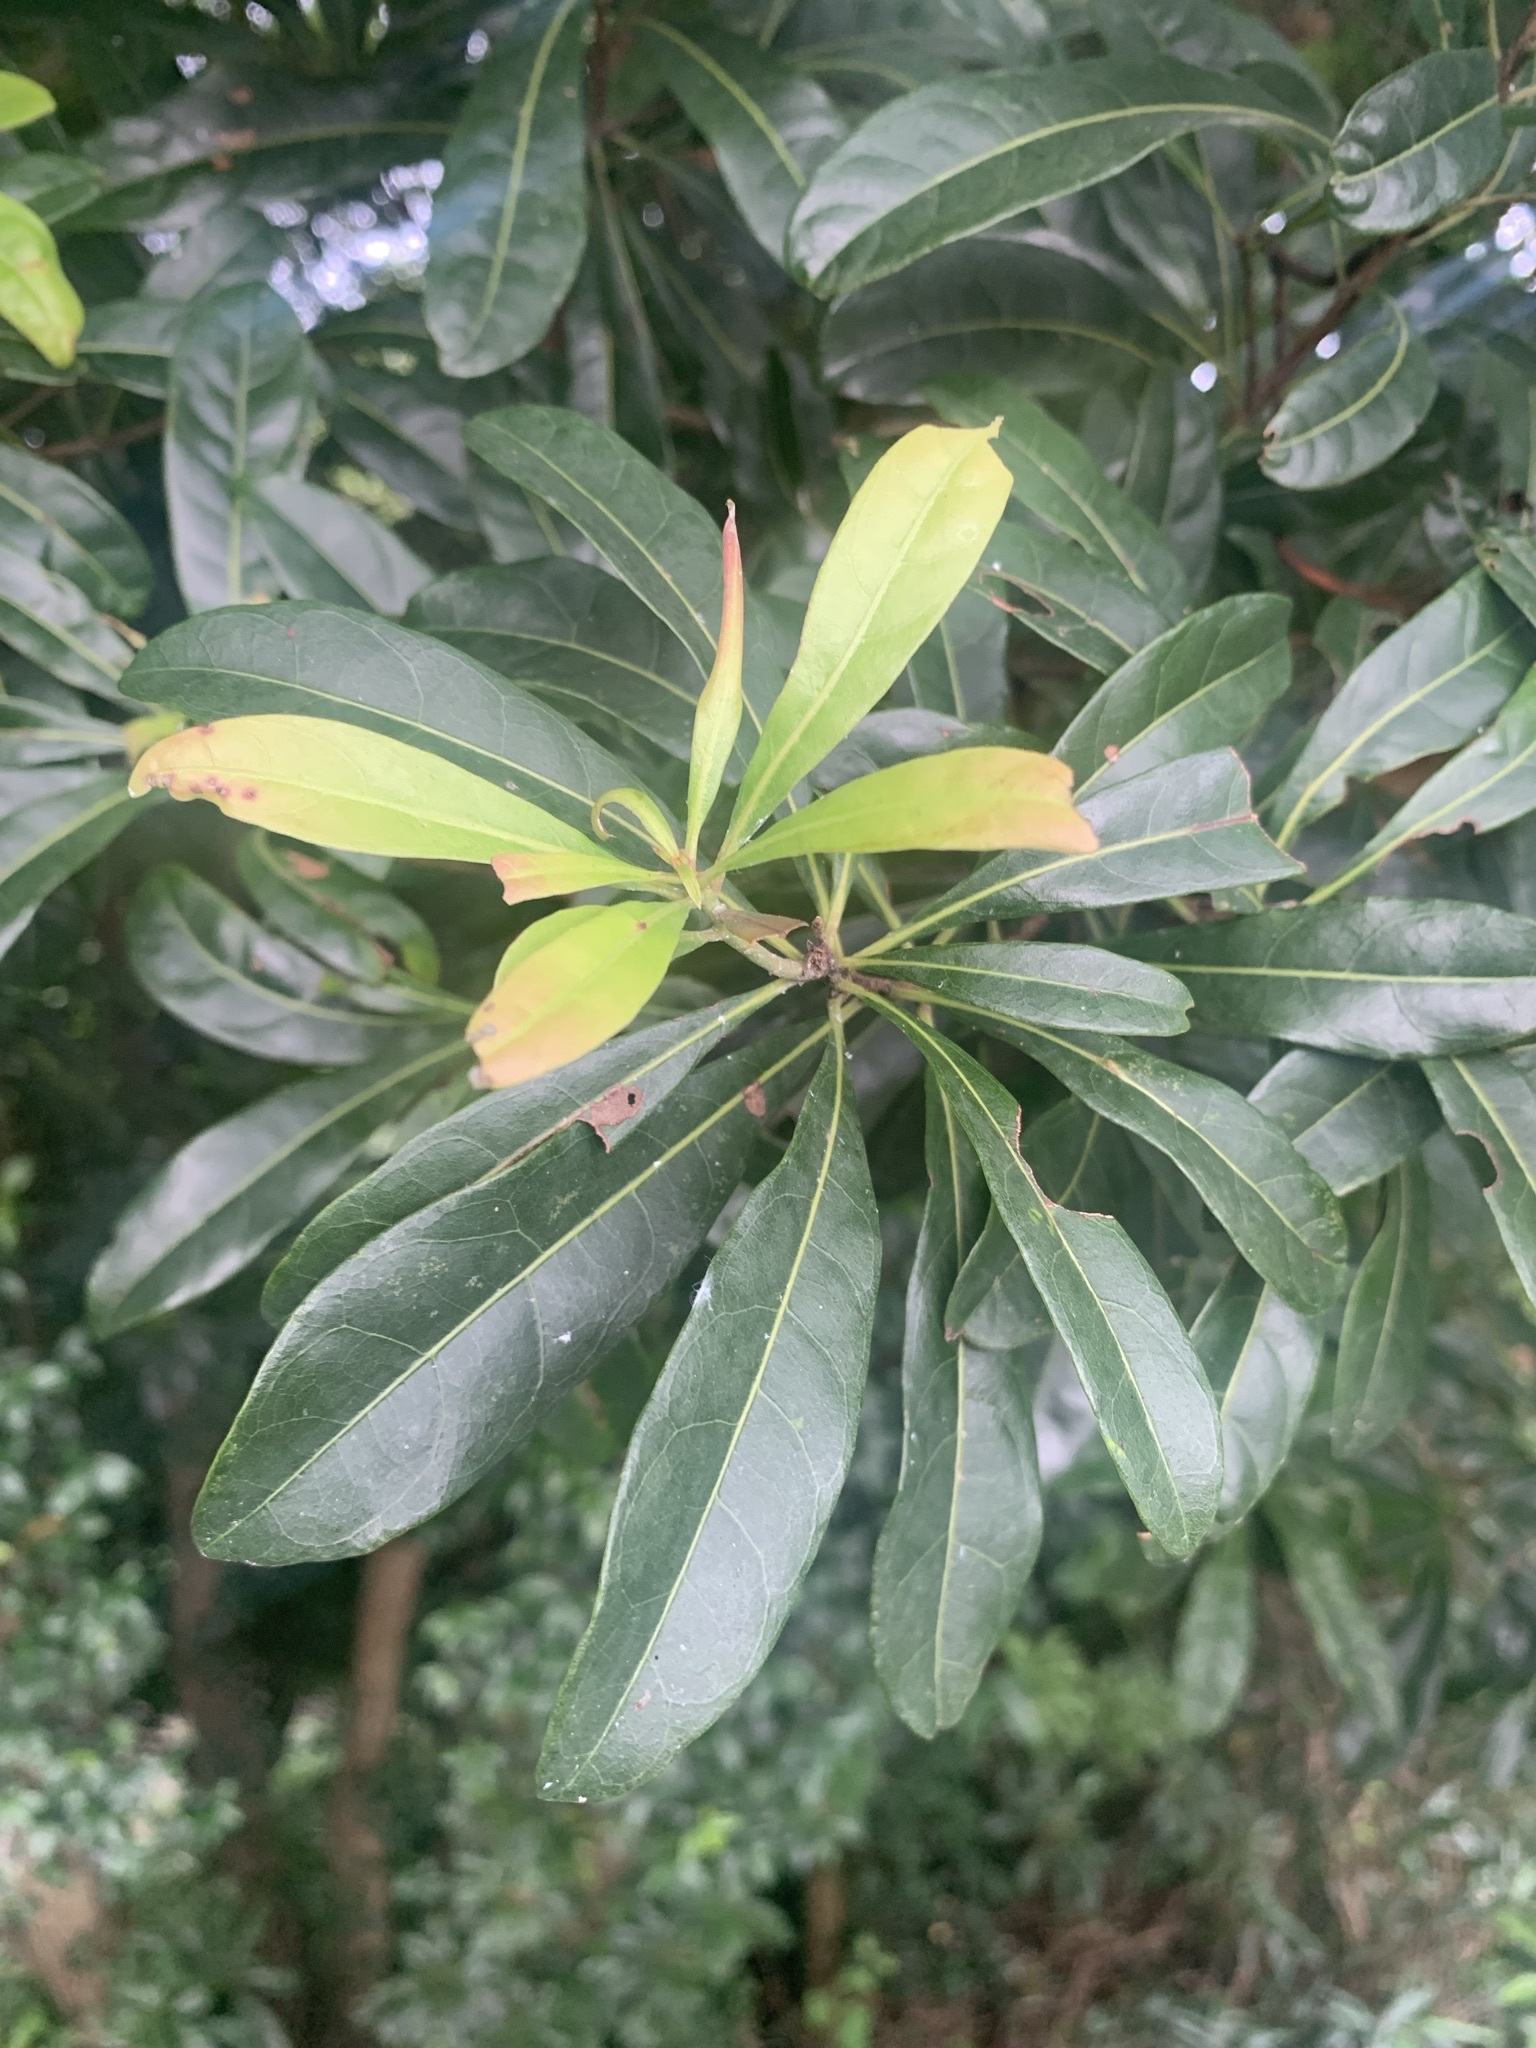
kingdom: Plantae
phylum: Tracheophyta
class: Magnoliopsida
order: Fagales
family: Myricaceae
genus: Morella
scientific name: Morella rubra
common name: Red bayberry
